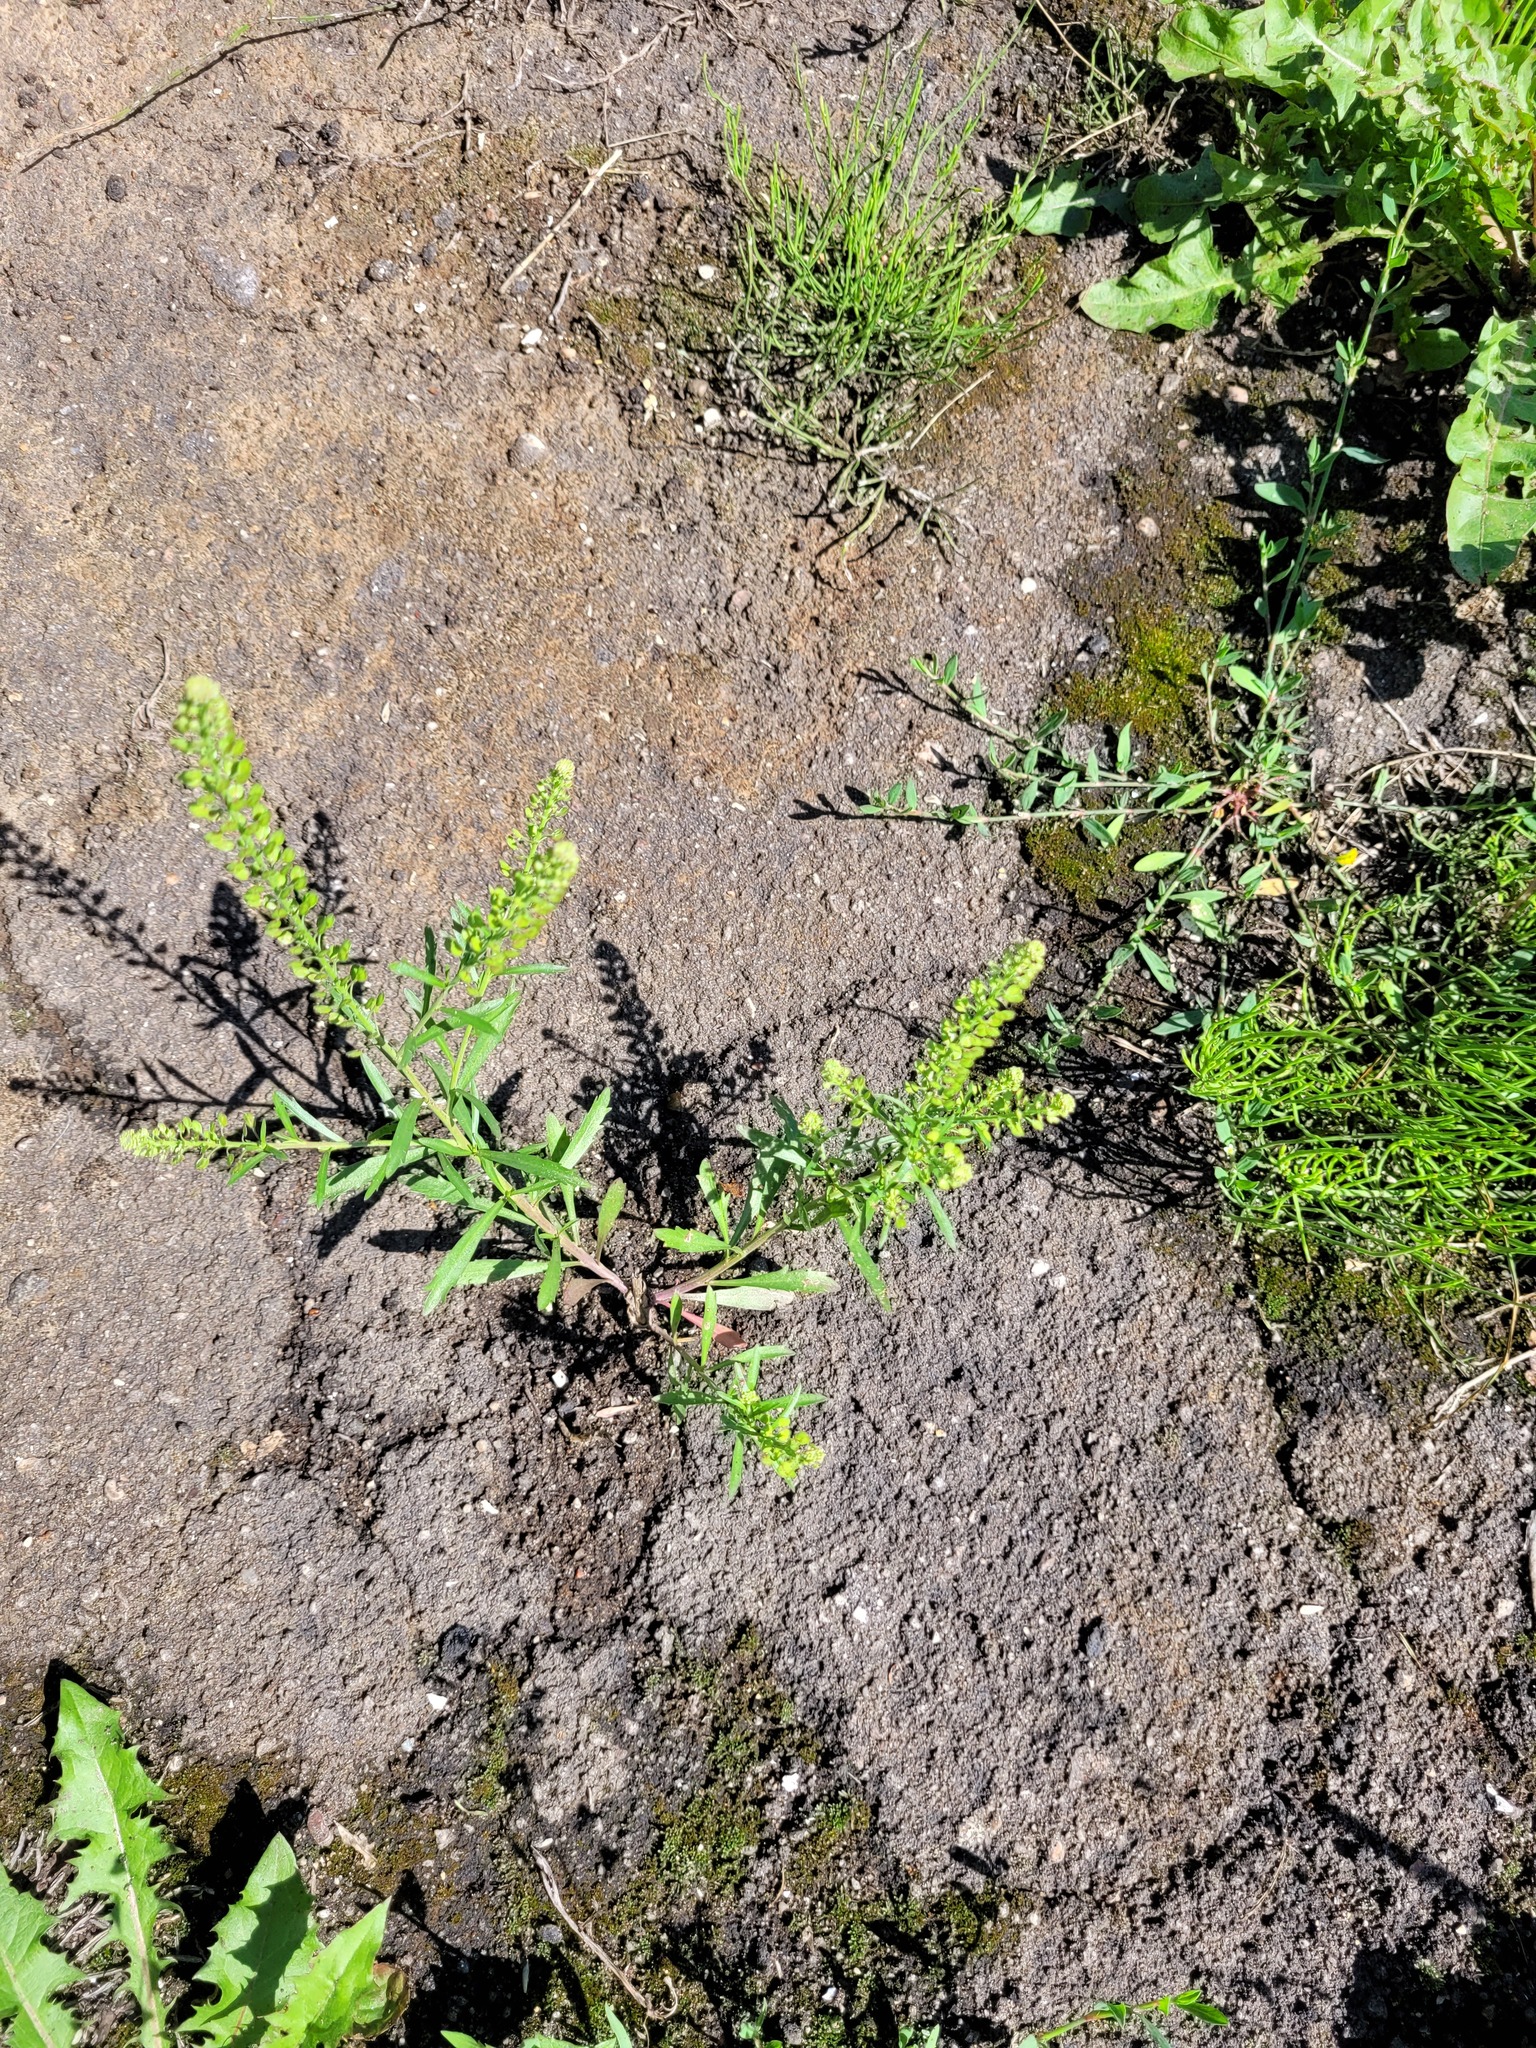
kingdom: Plantae
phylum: Tracheophyta
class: Magnoliopsida
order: Brassicales
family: Brassicaceae
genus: Lepidium
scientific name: Lepidium densiflorum
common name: Miner's pepperwort
